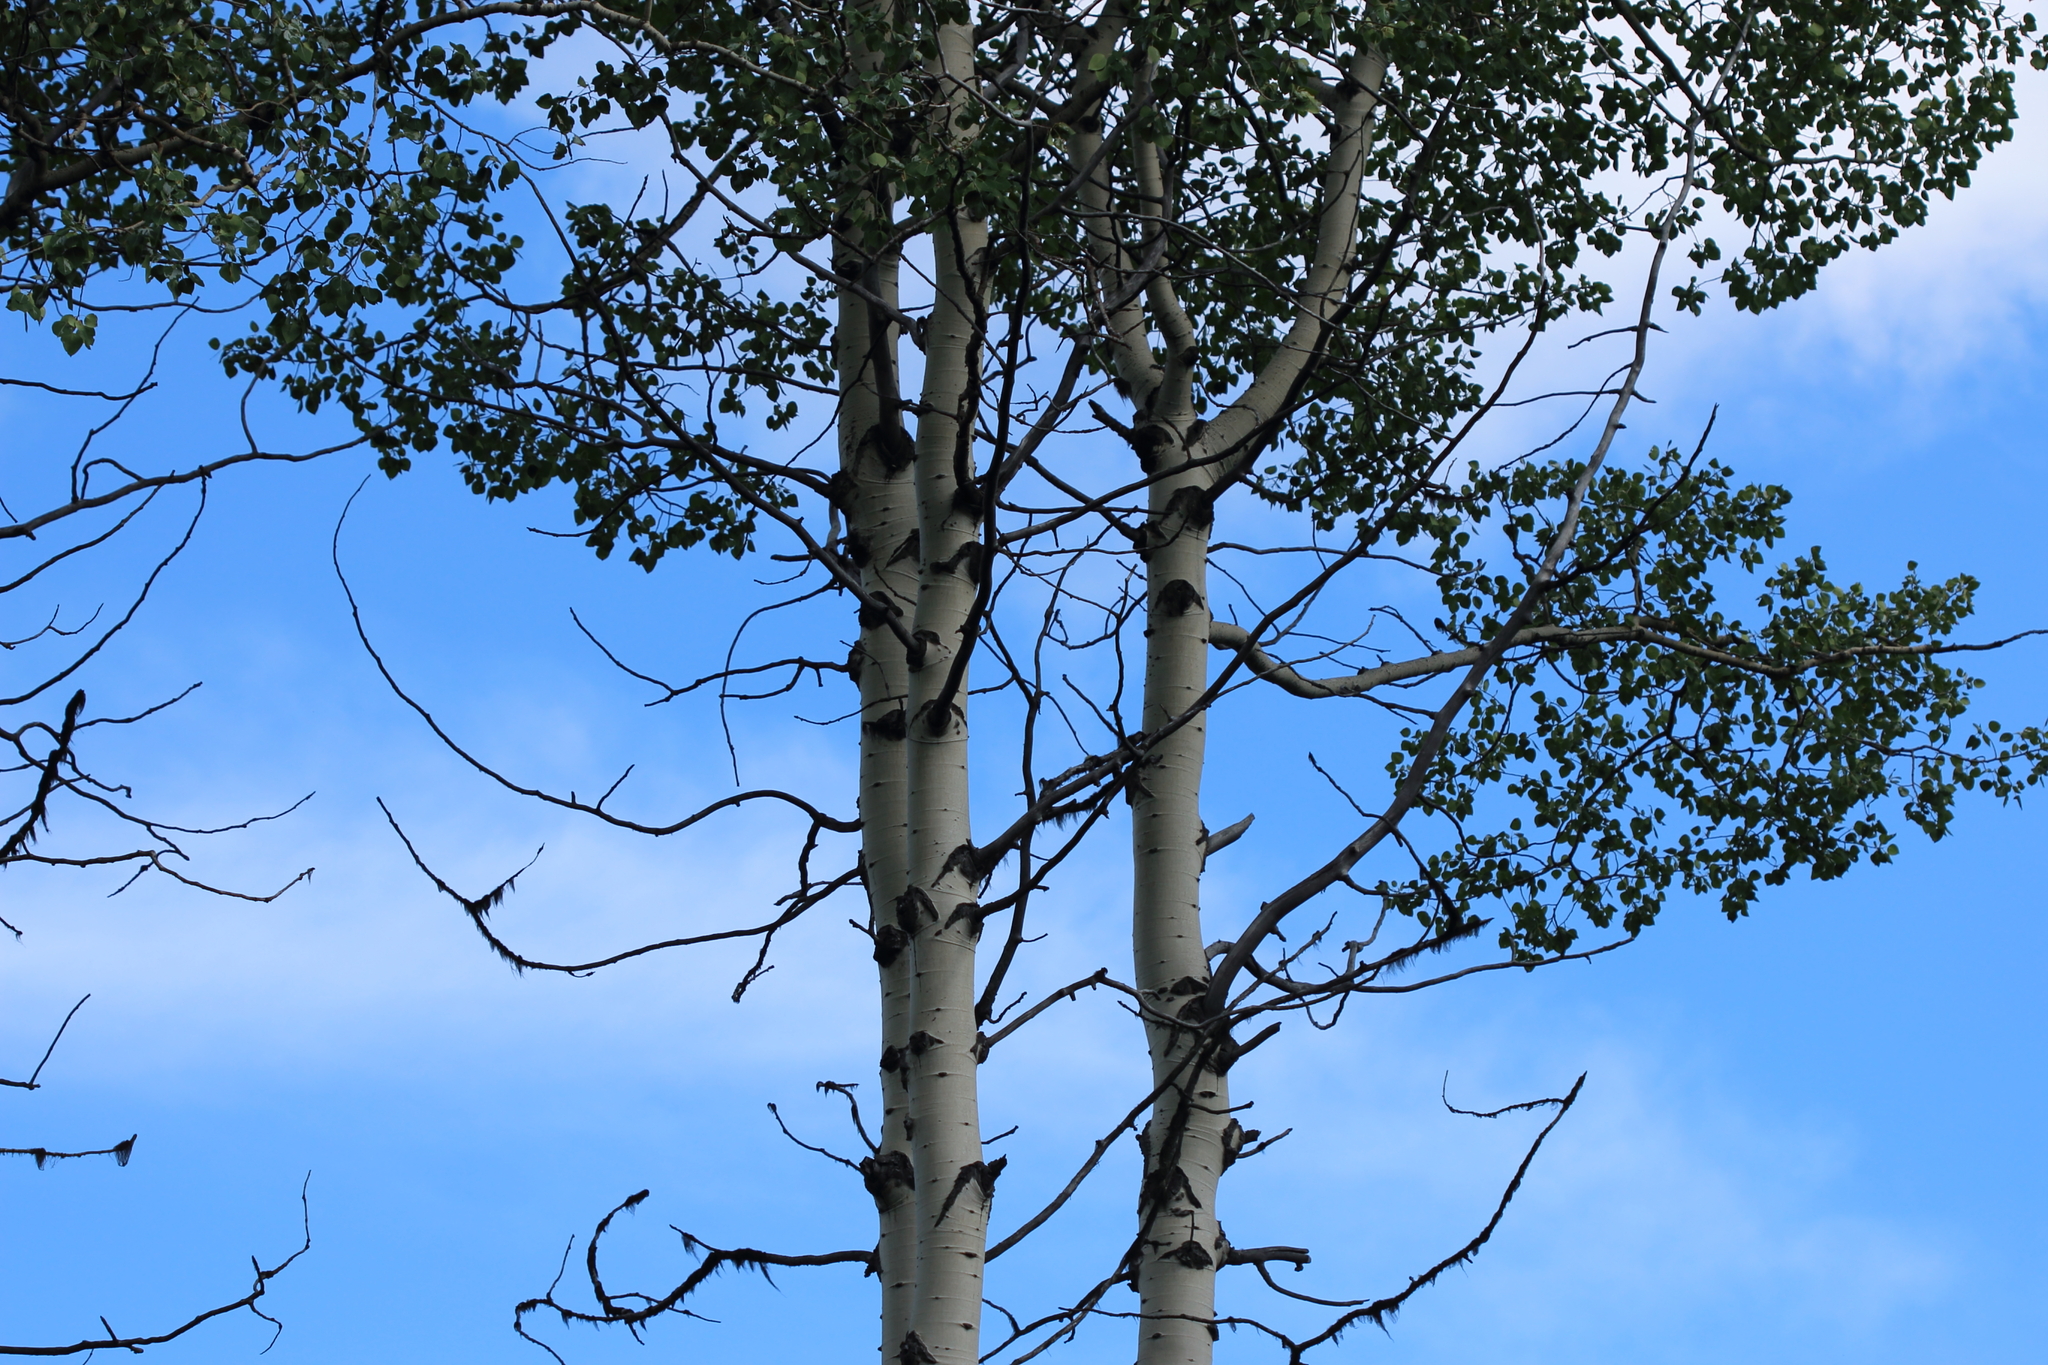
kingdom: Plantae
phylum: Tracheophyta
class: Magnoliopsida
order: Malpighiales
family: Salicaceae
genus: Populus
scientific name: Populus tremuloides
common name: Quaking aspen
